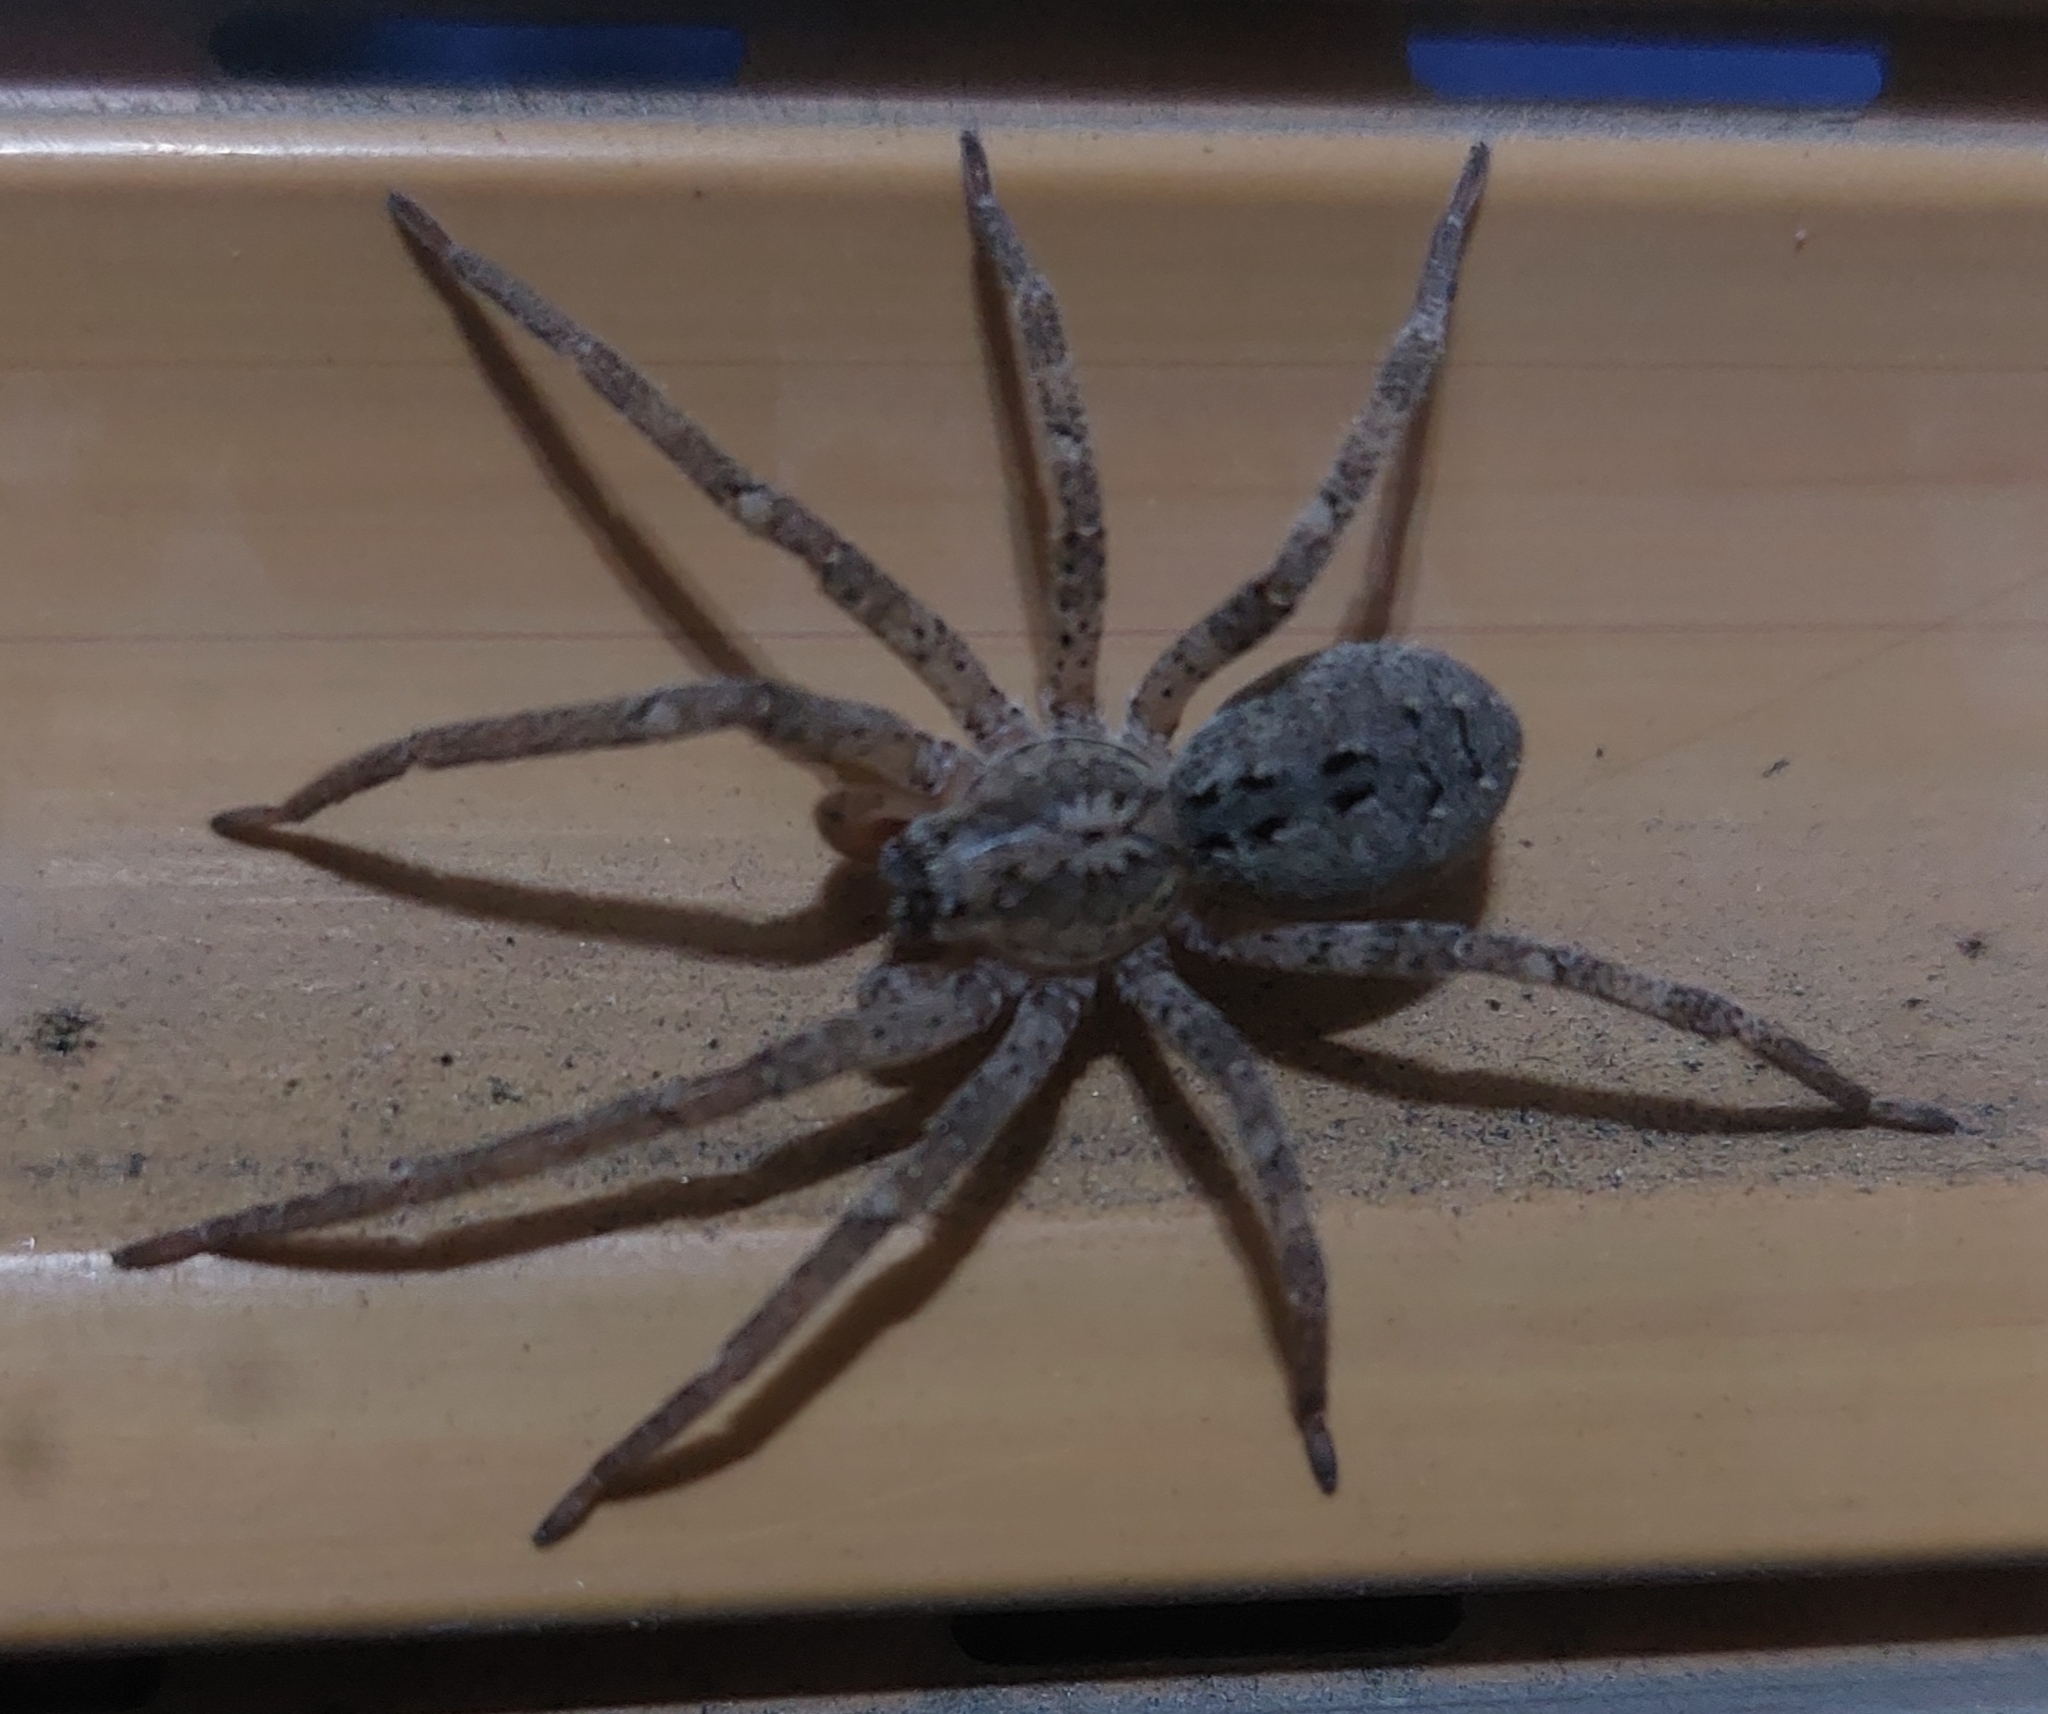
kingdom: Animalia
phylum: Arthropoda
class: Arachnida
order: Araneae
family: Zoropsidae
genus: Zoropsis
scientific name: Zoropsis spinimana
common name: Zoropsid spider
